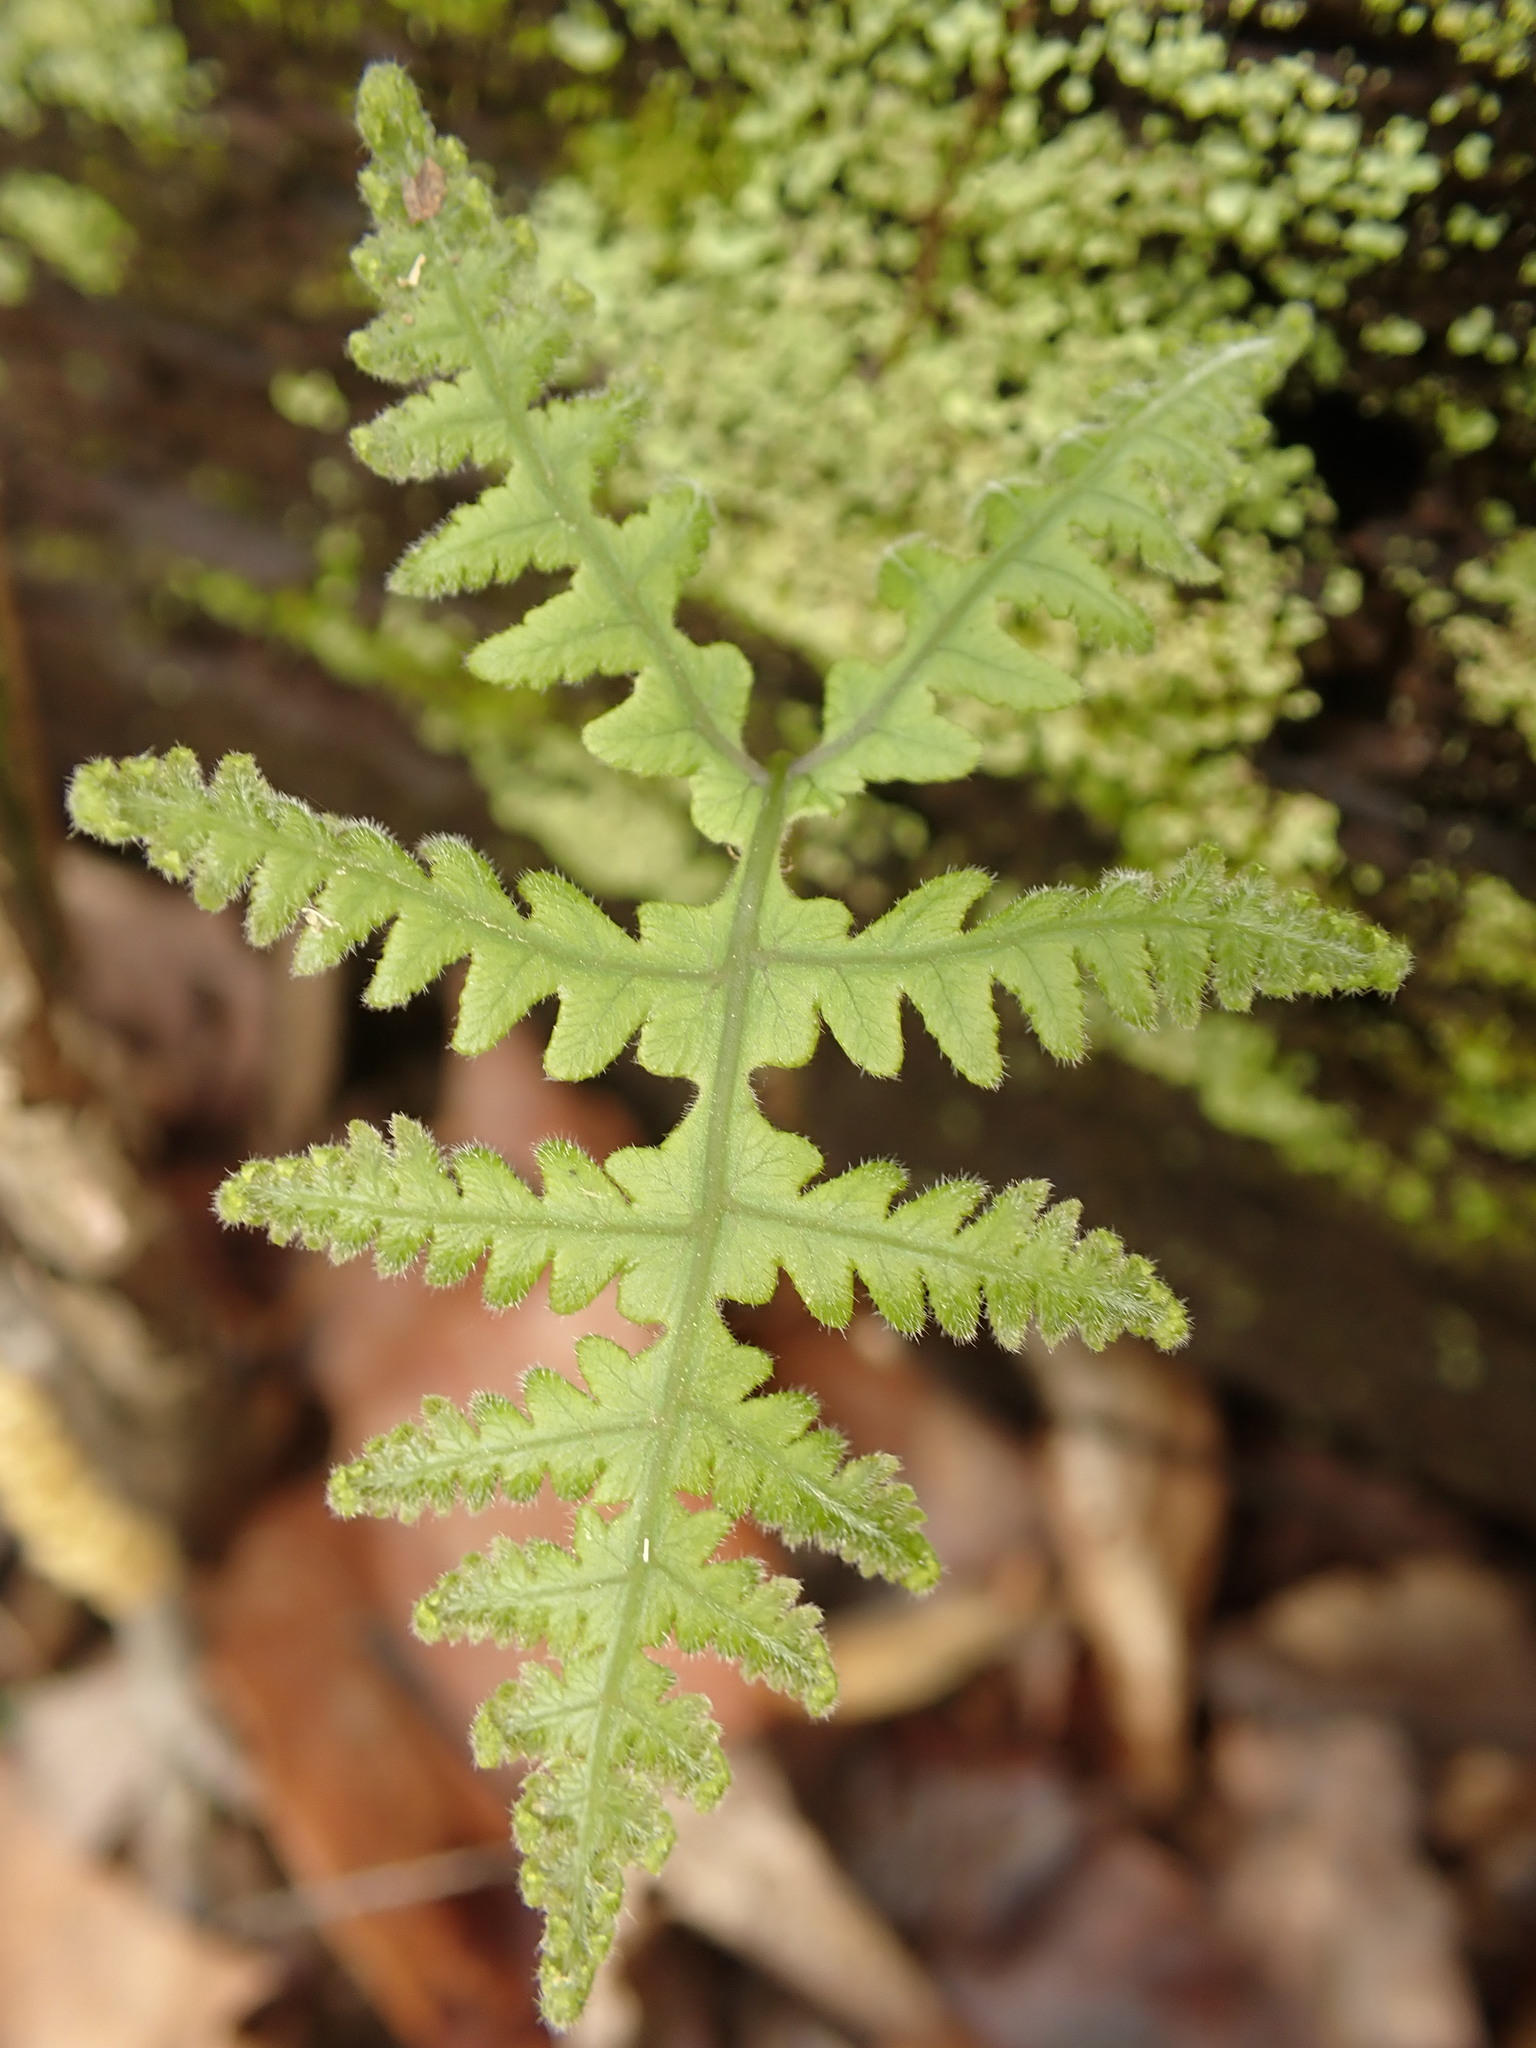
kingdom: Plantae
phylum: Tracheophyta
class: Polypodiopsida
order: Polypodiales
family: Thelypteridaceae
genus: Phegopteris
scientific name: Phegopteris hexagonoptera
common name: Broad beech fern
